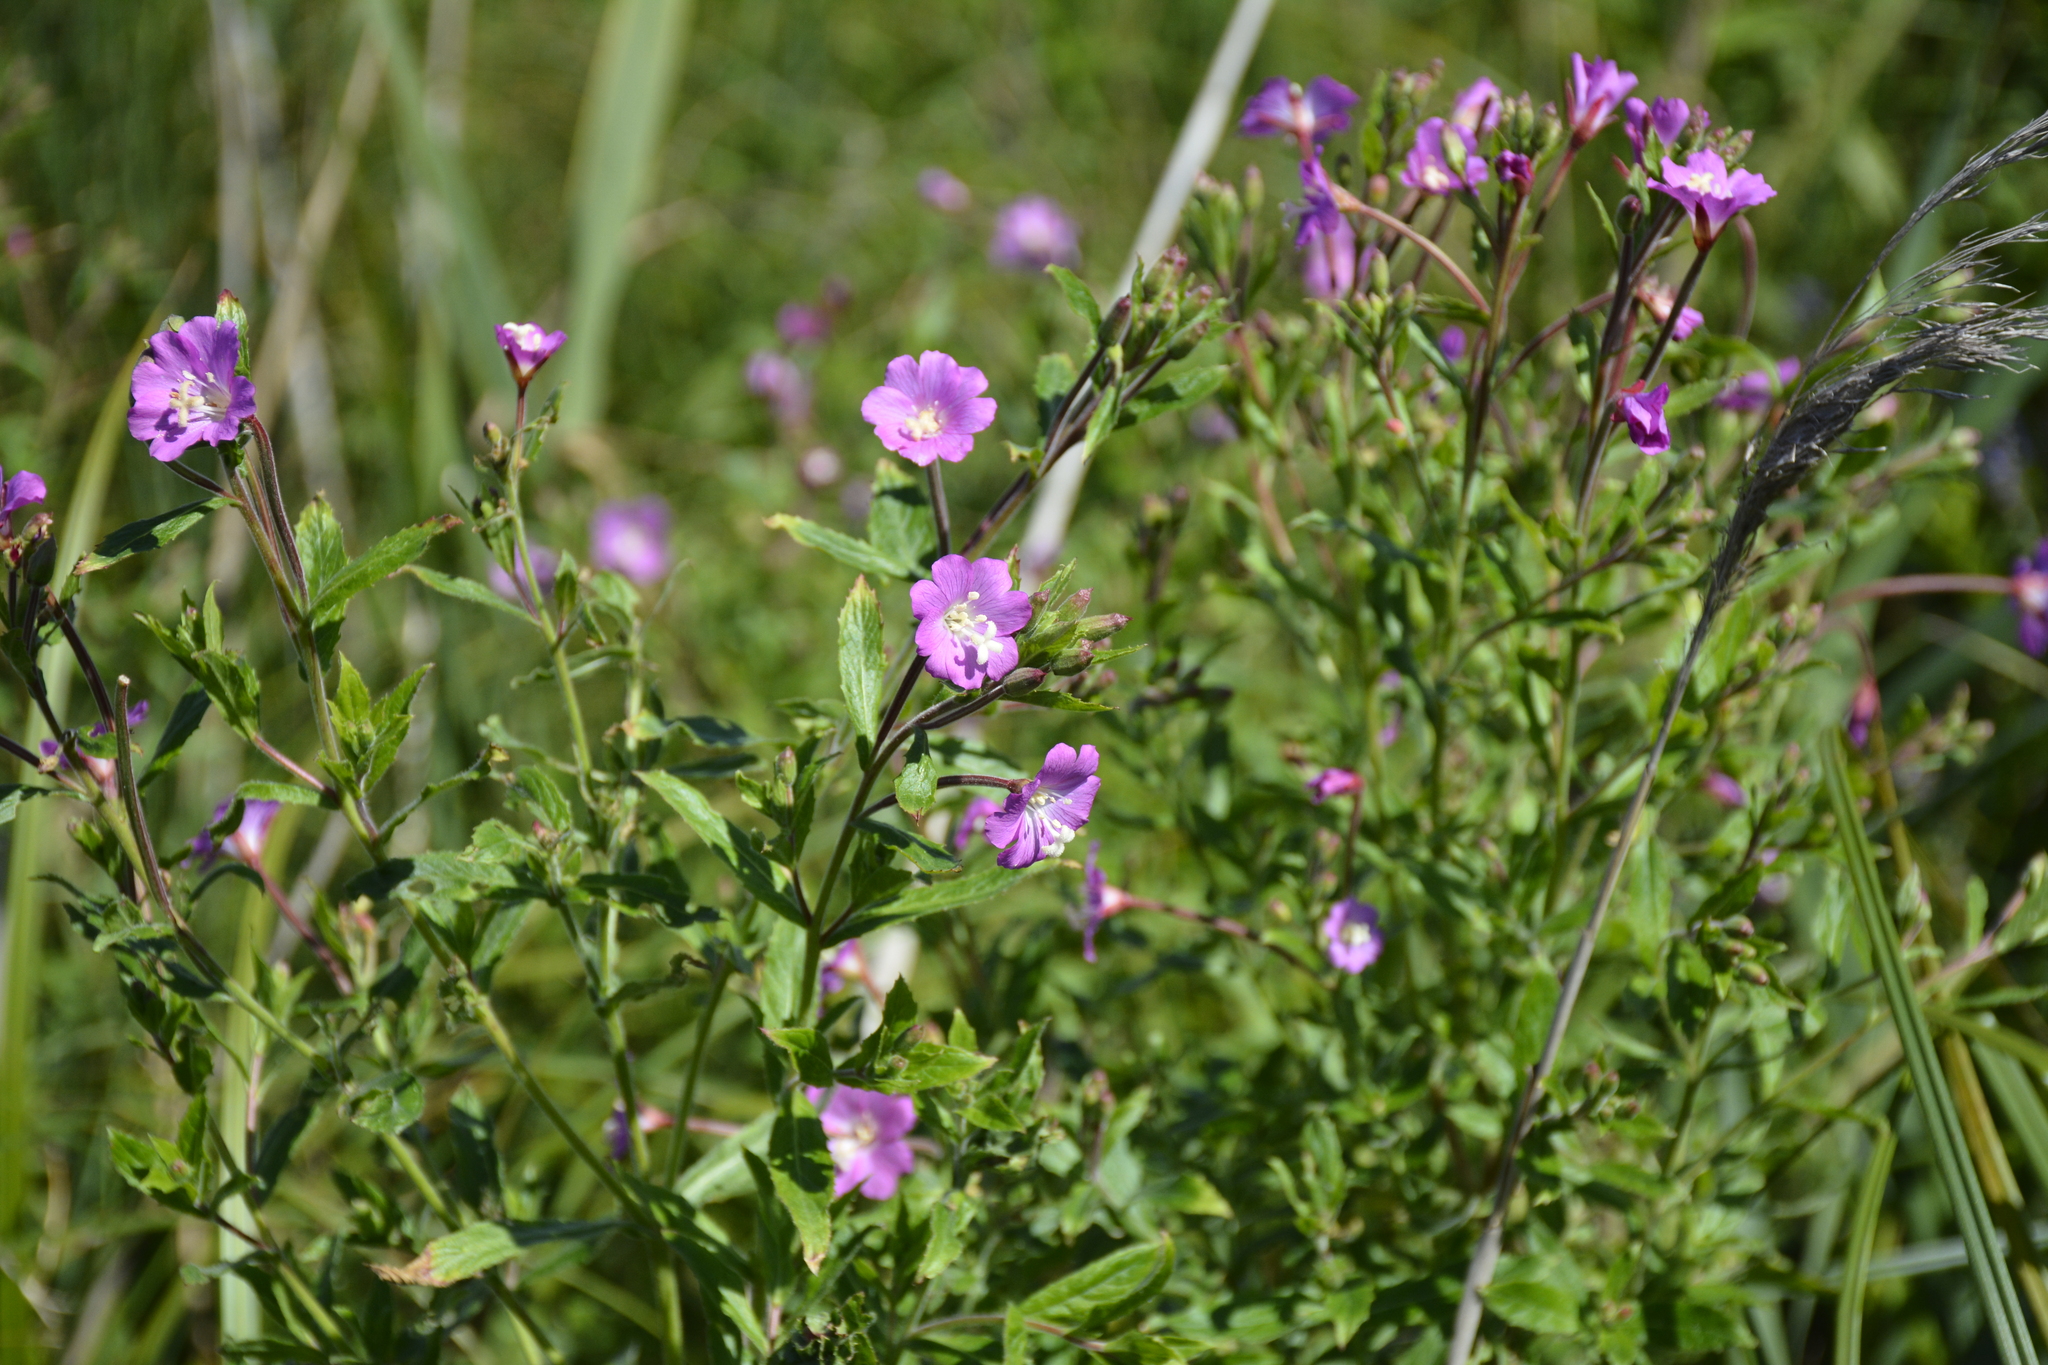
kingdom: Plantae
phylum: Tracheophyta
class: Magnoliopsida
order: Myrtales
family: Onagraceae
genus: Epilobium
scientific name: Epilobium hirsutum
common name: Great willowherb
